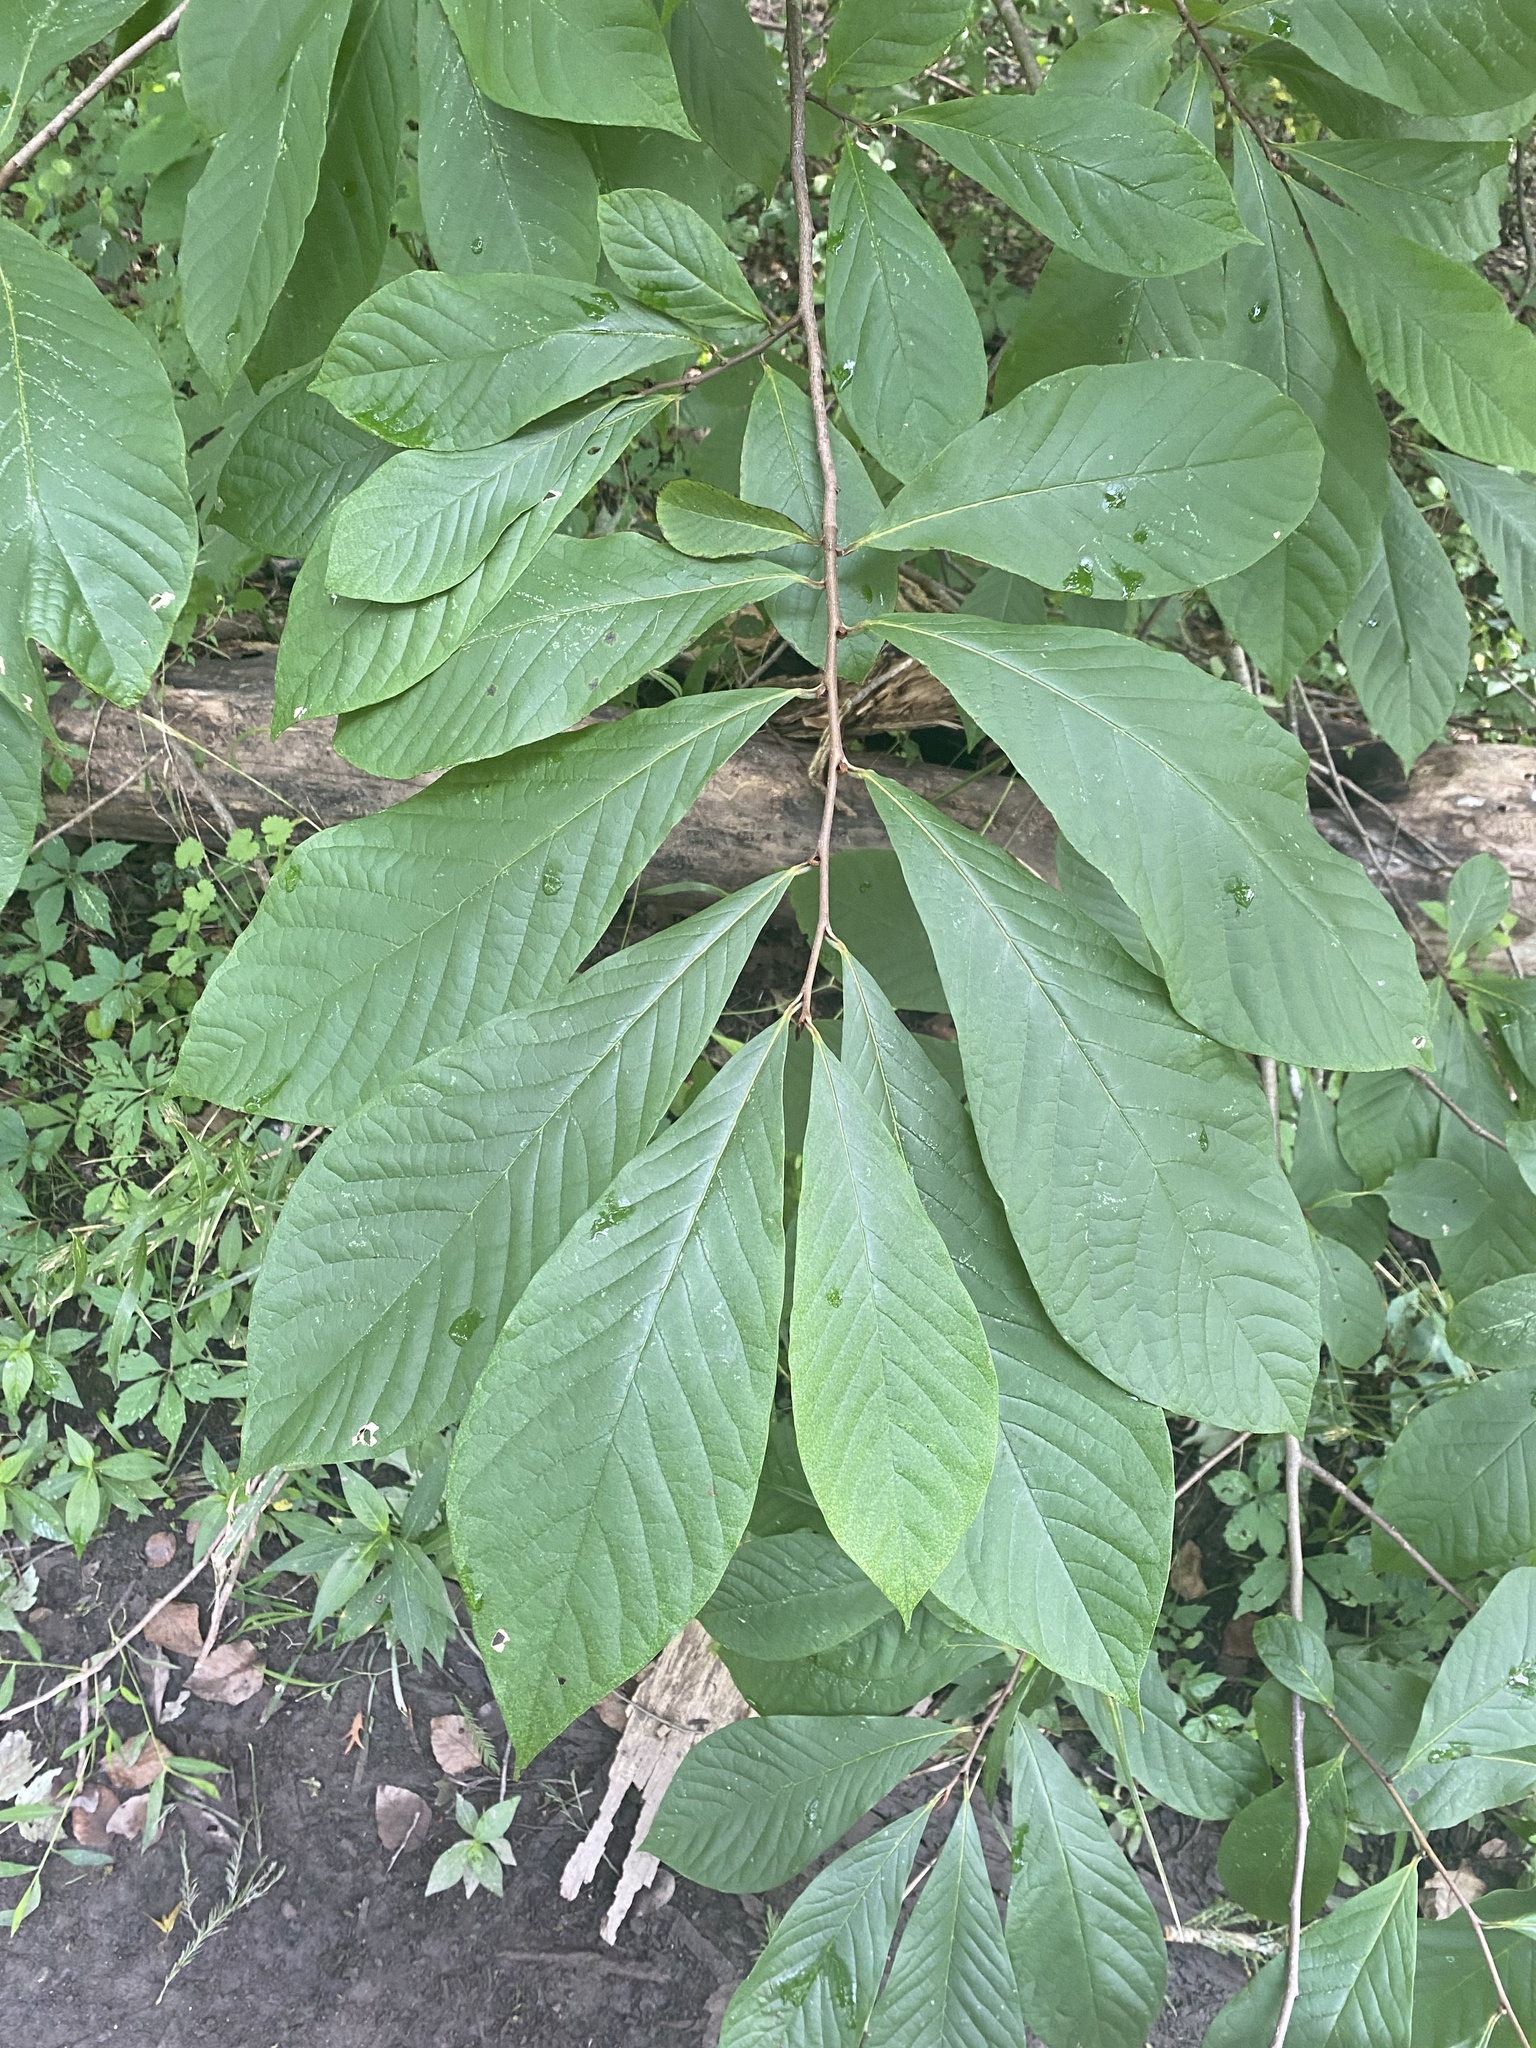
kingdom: Plantae
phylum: Tracheophyta
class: Magnoliopsida
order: Magnoliales
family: Annonaceae
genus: Asimina
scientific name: Asimina triloba
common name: Dog-banana
